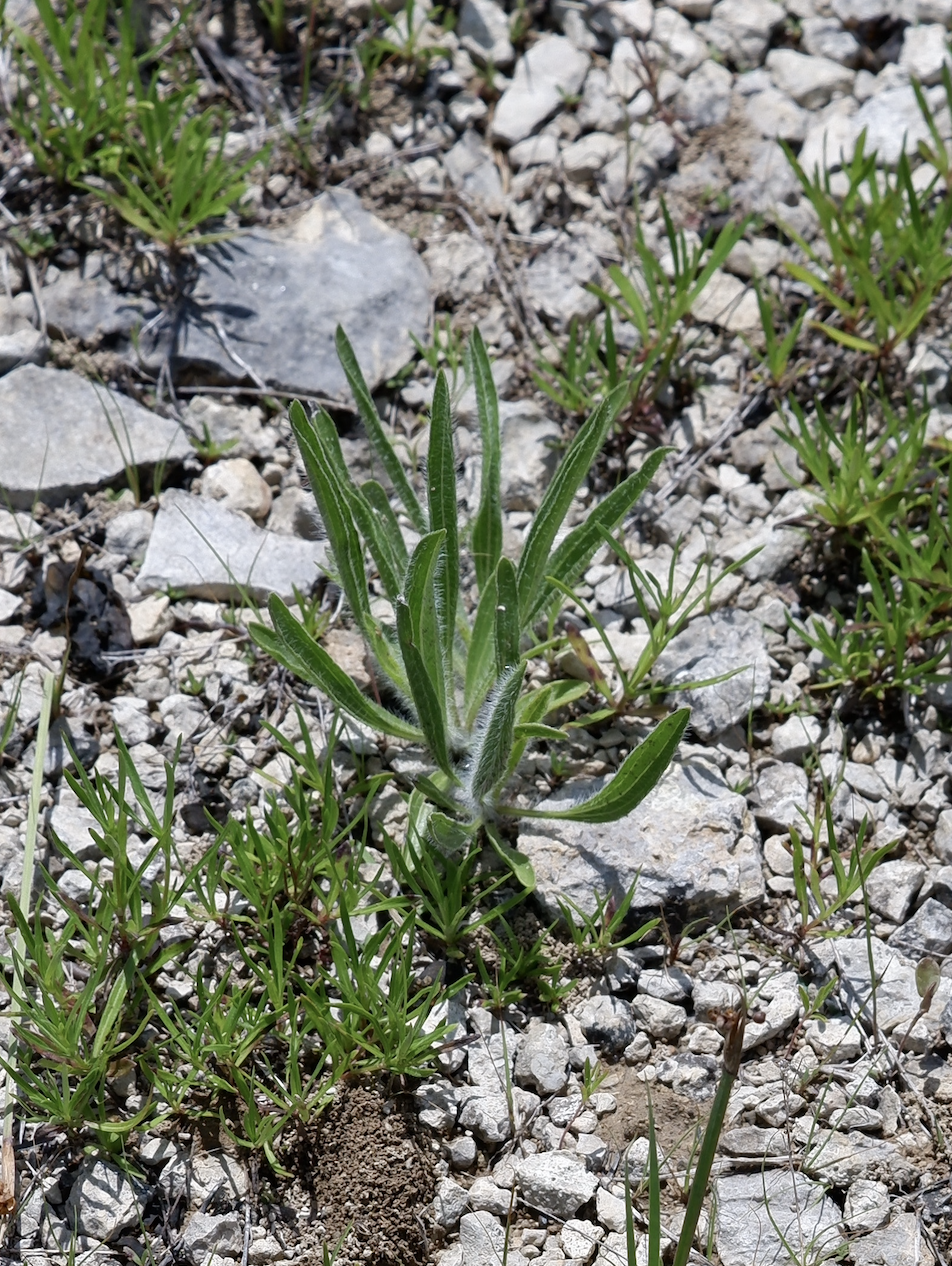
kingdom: Plantae
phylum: Tracheophyta
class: Magnoliopsida
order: Asterales
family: Asteraceae
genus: Echinacea
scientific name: Echinacea tennesseensis
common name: Tennessee purple-coneflower
